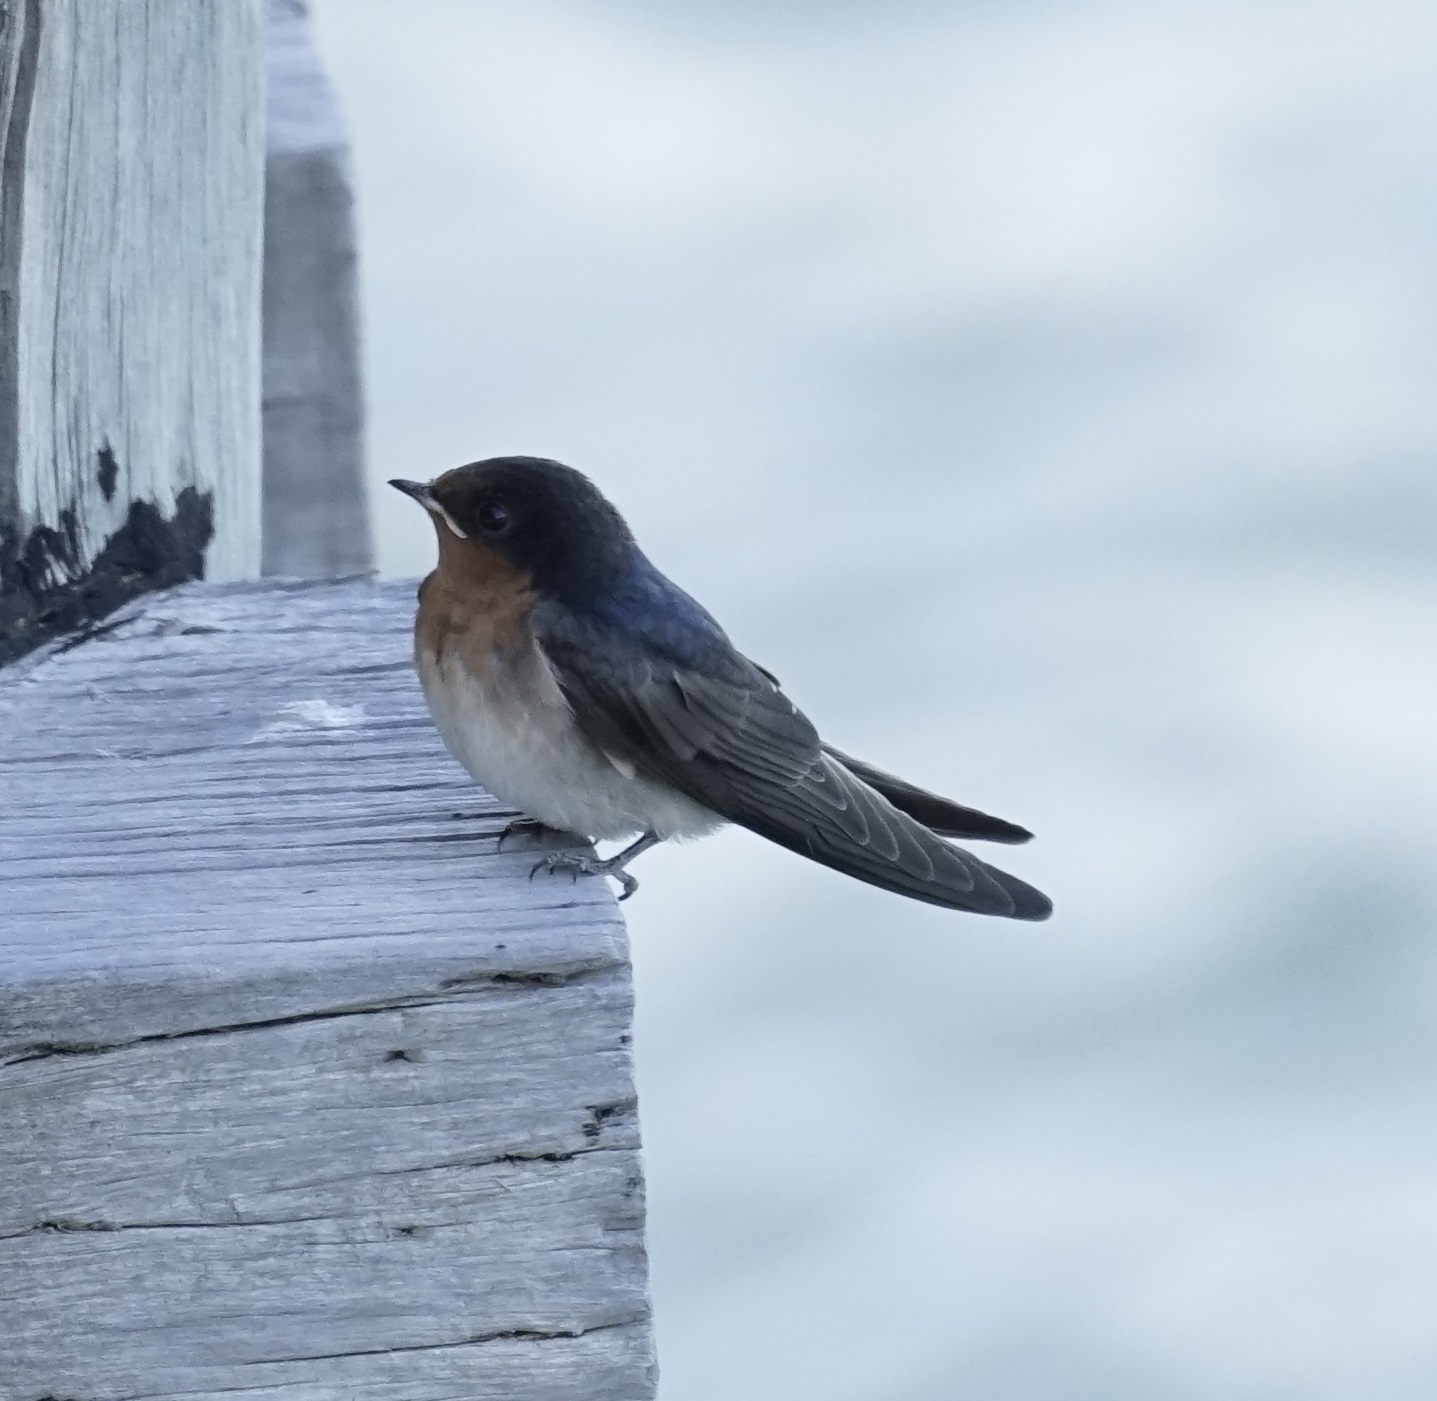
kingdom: Animalia
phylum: Chordata
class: Aves
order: Passeriformes
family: Hirundinidae
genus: Hirundo
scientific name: Hirundo neoxena
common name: Welcome swallow
